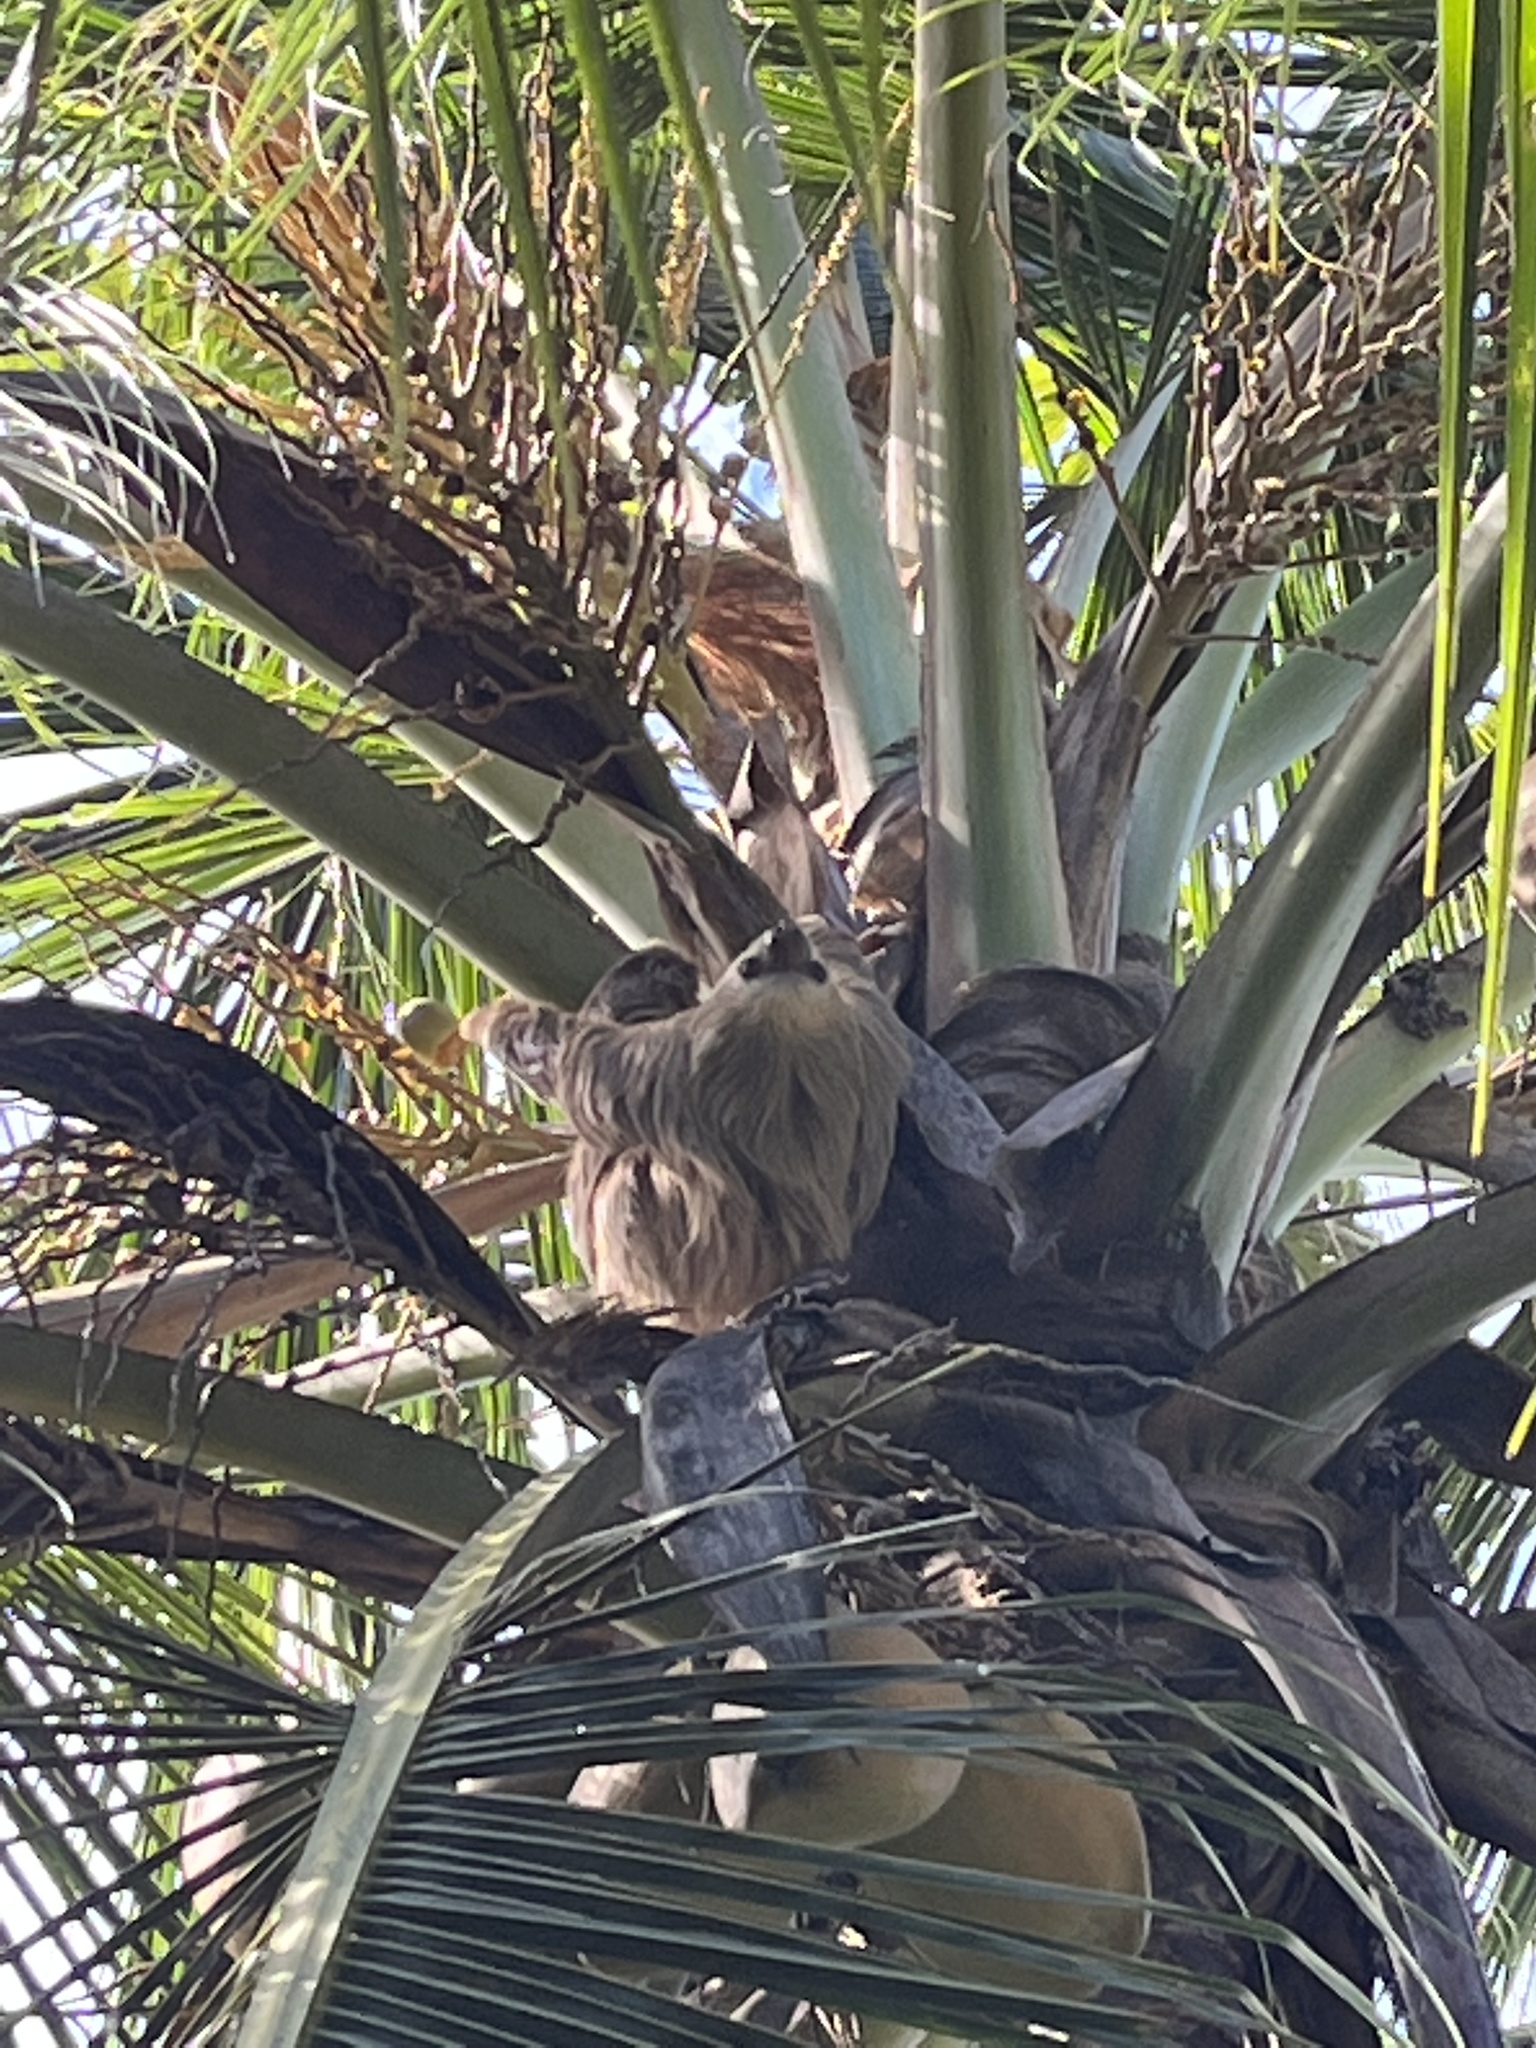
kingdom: Animalia
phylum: Chordata
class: Mammalia
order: Pilosa
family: Megalonychidae
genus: Choloepus
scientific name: Choloepus hoffmanni
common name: Hoffmann's two-toed sloth
